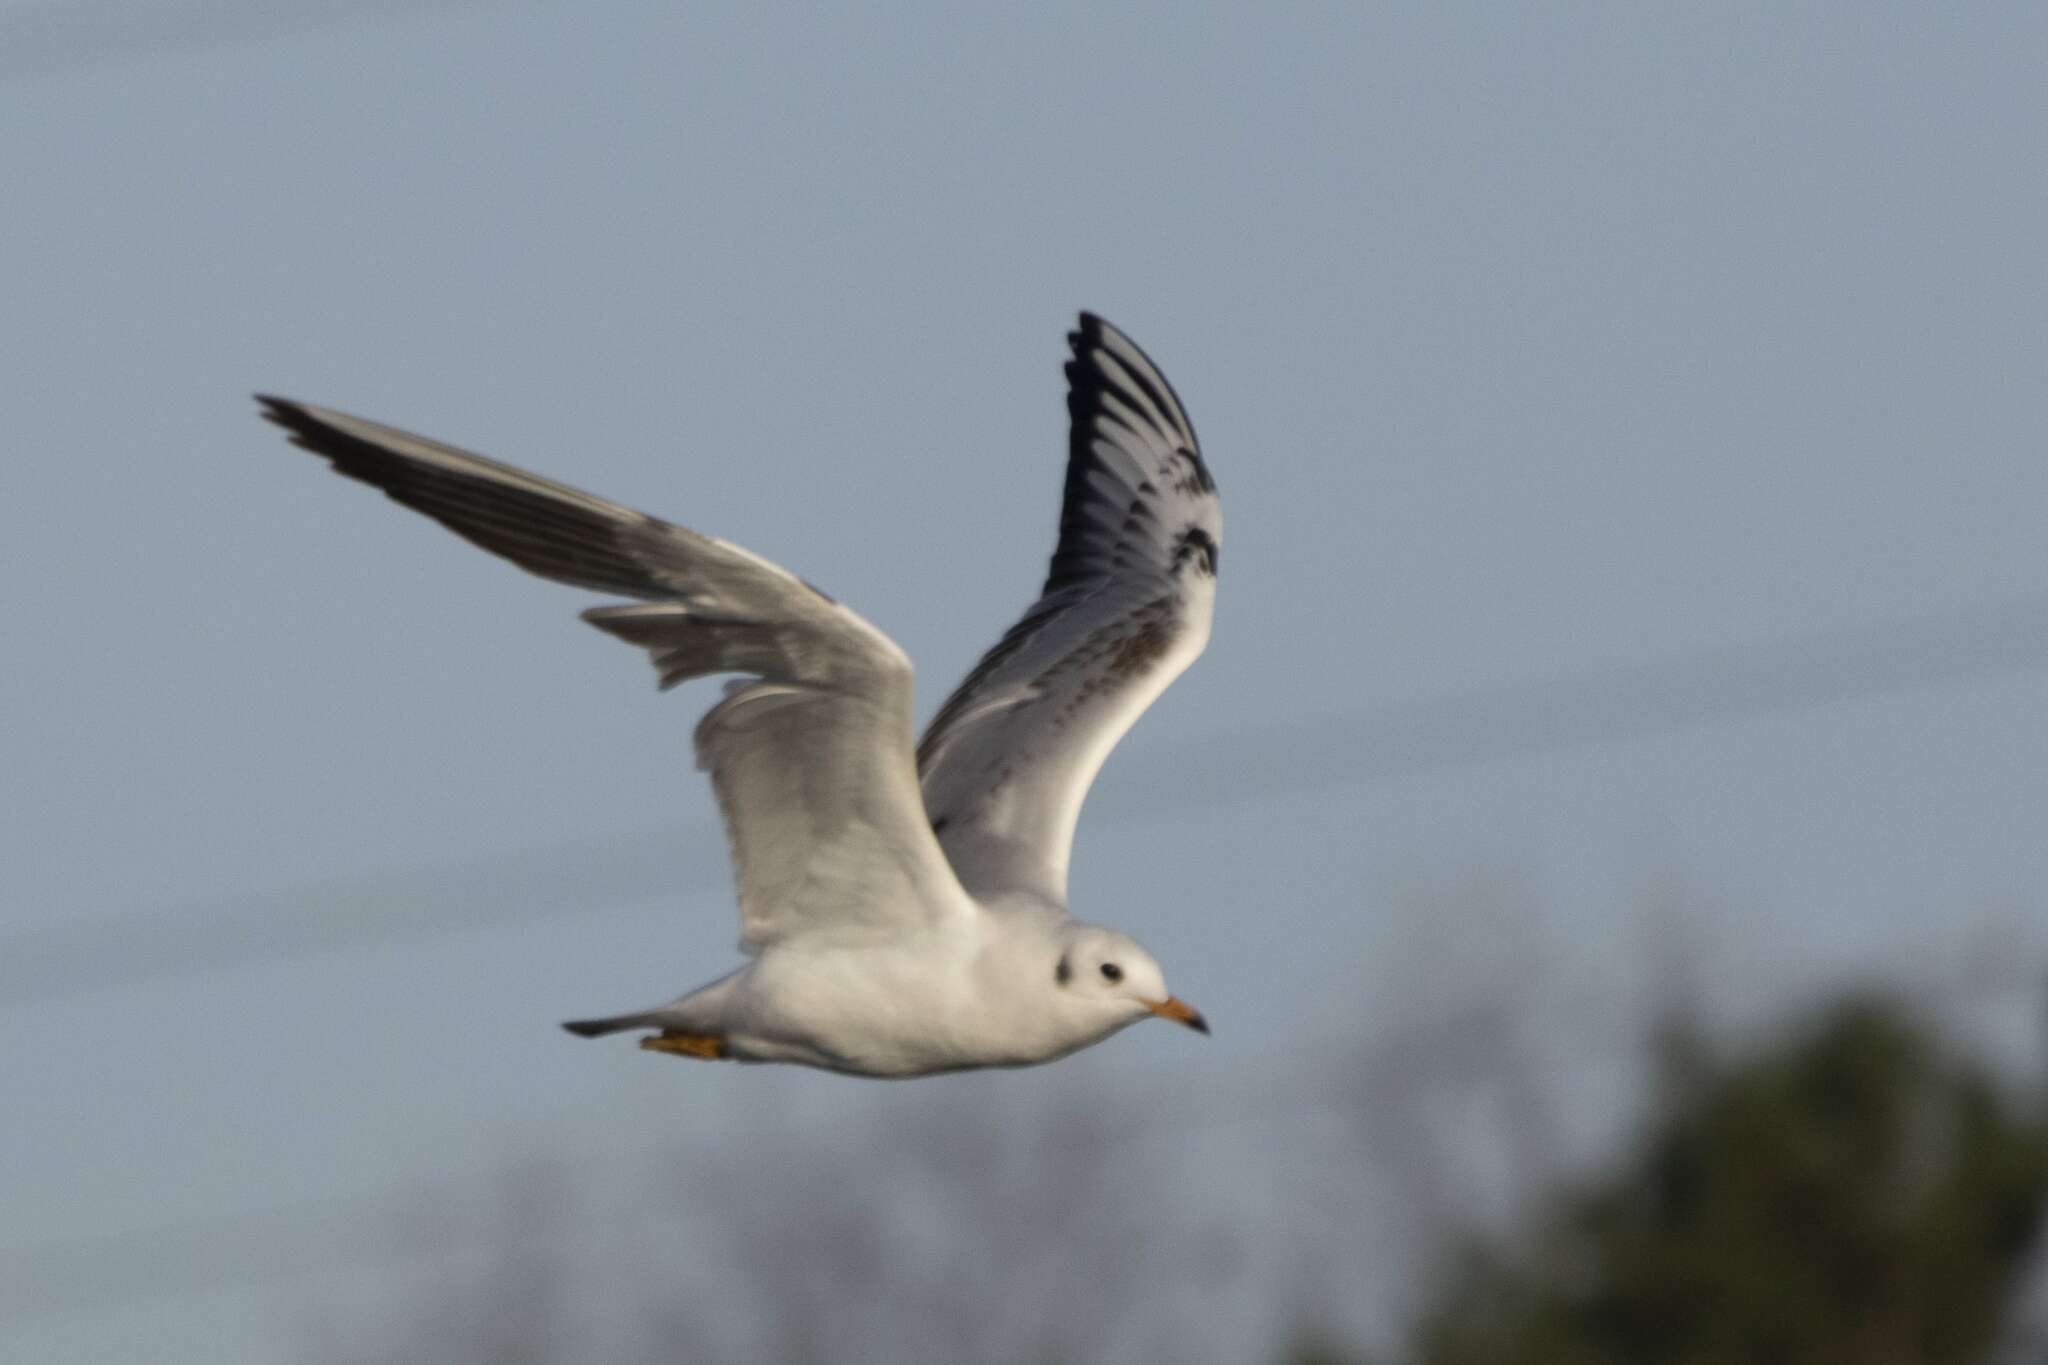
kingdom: Animalia
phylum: Chordata
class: Aves
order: Charadriiformes
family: Laridae
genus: Chroicocephalus
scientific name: Chroicocephalus ridibundus
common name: Black-headed gull
